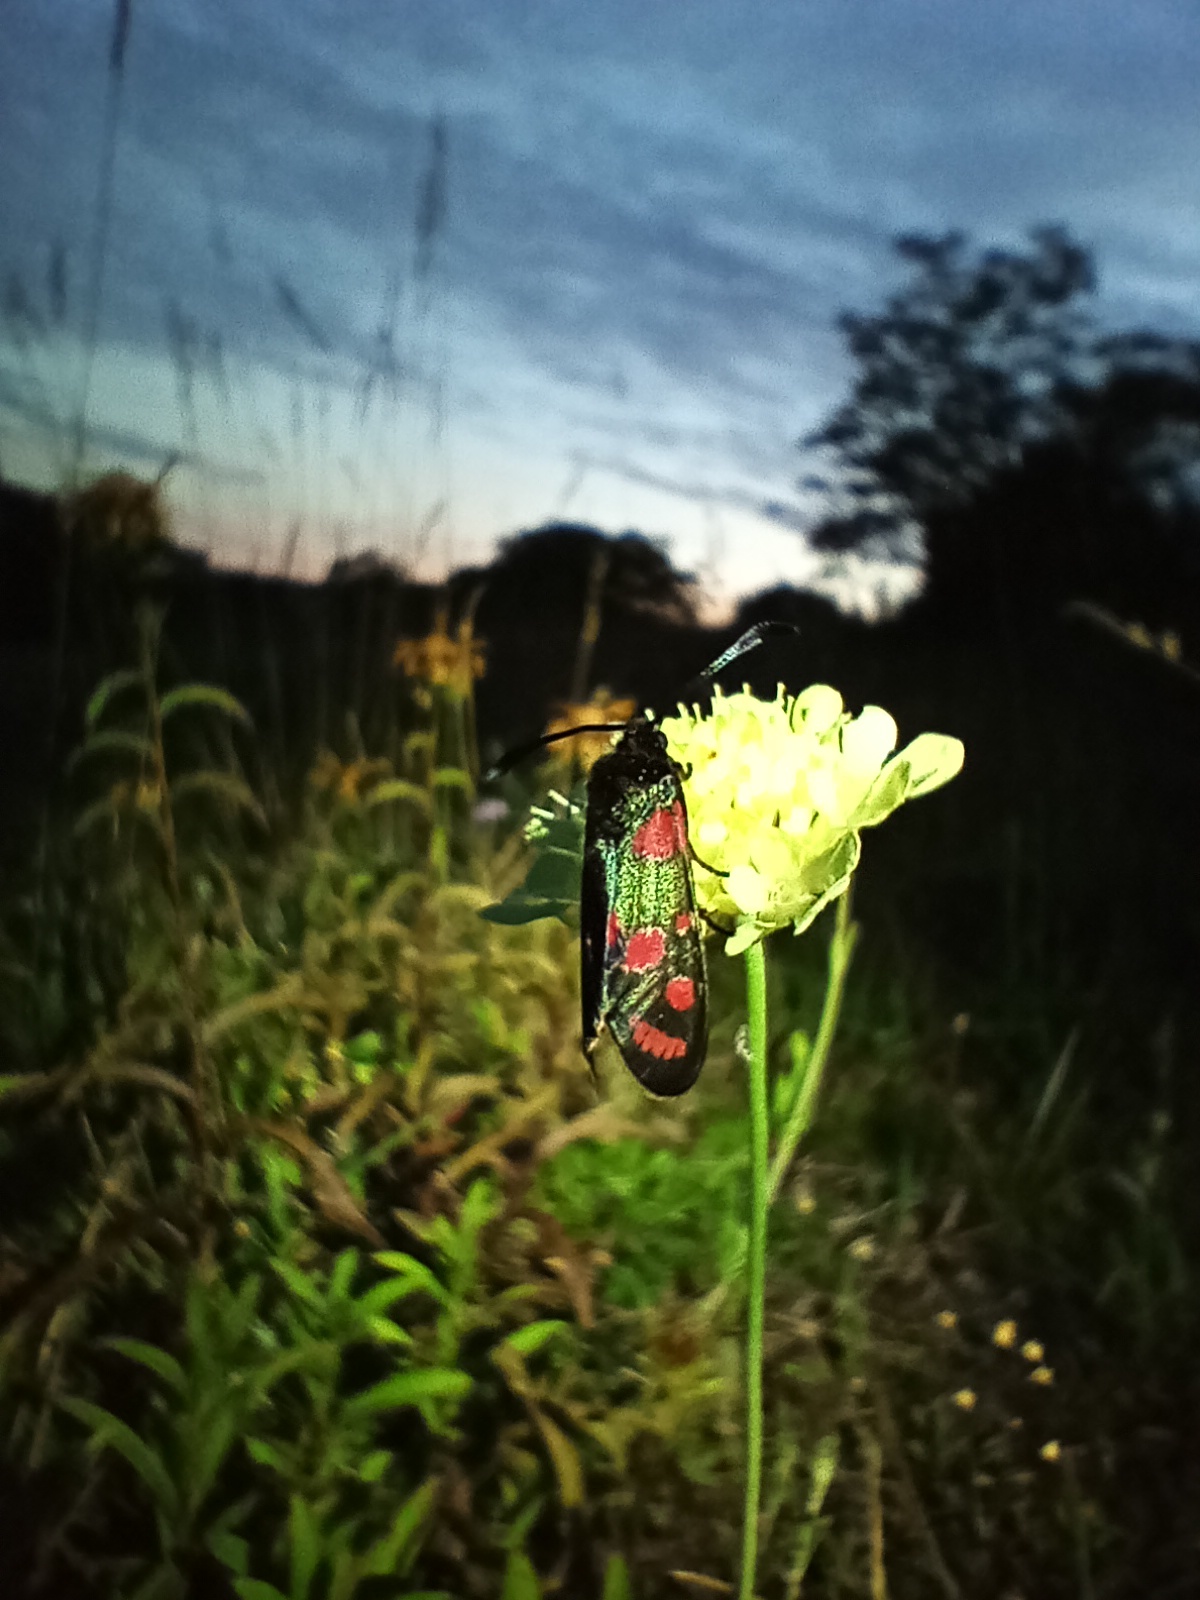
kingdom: Animalia
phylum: Arthropoda
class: Insecta
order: Lepidoptera
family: Zygaenidae
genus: Zygaena
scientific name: Zygaena carniolica
